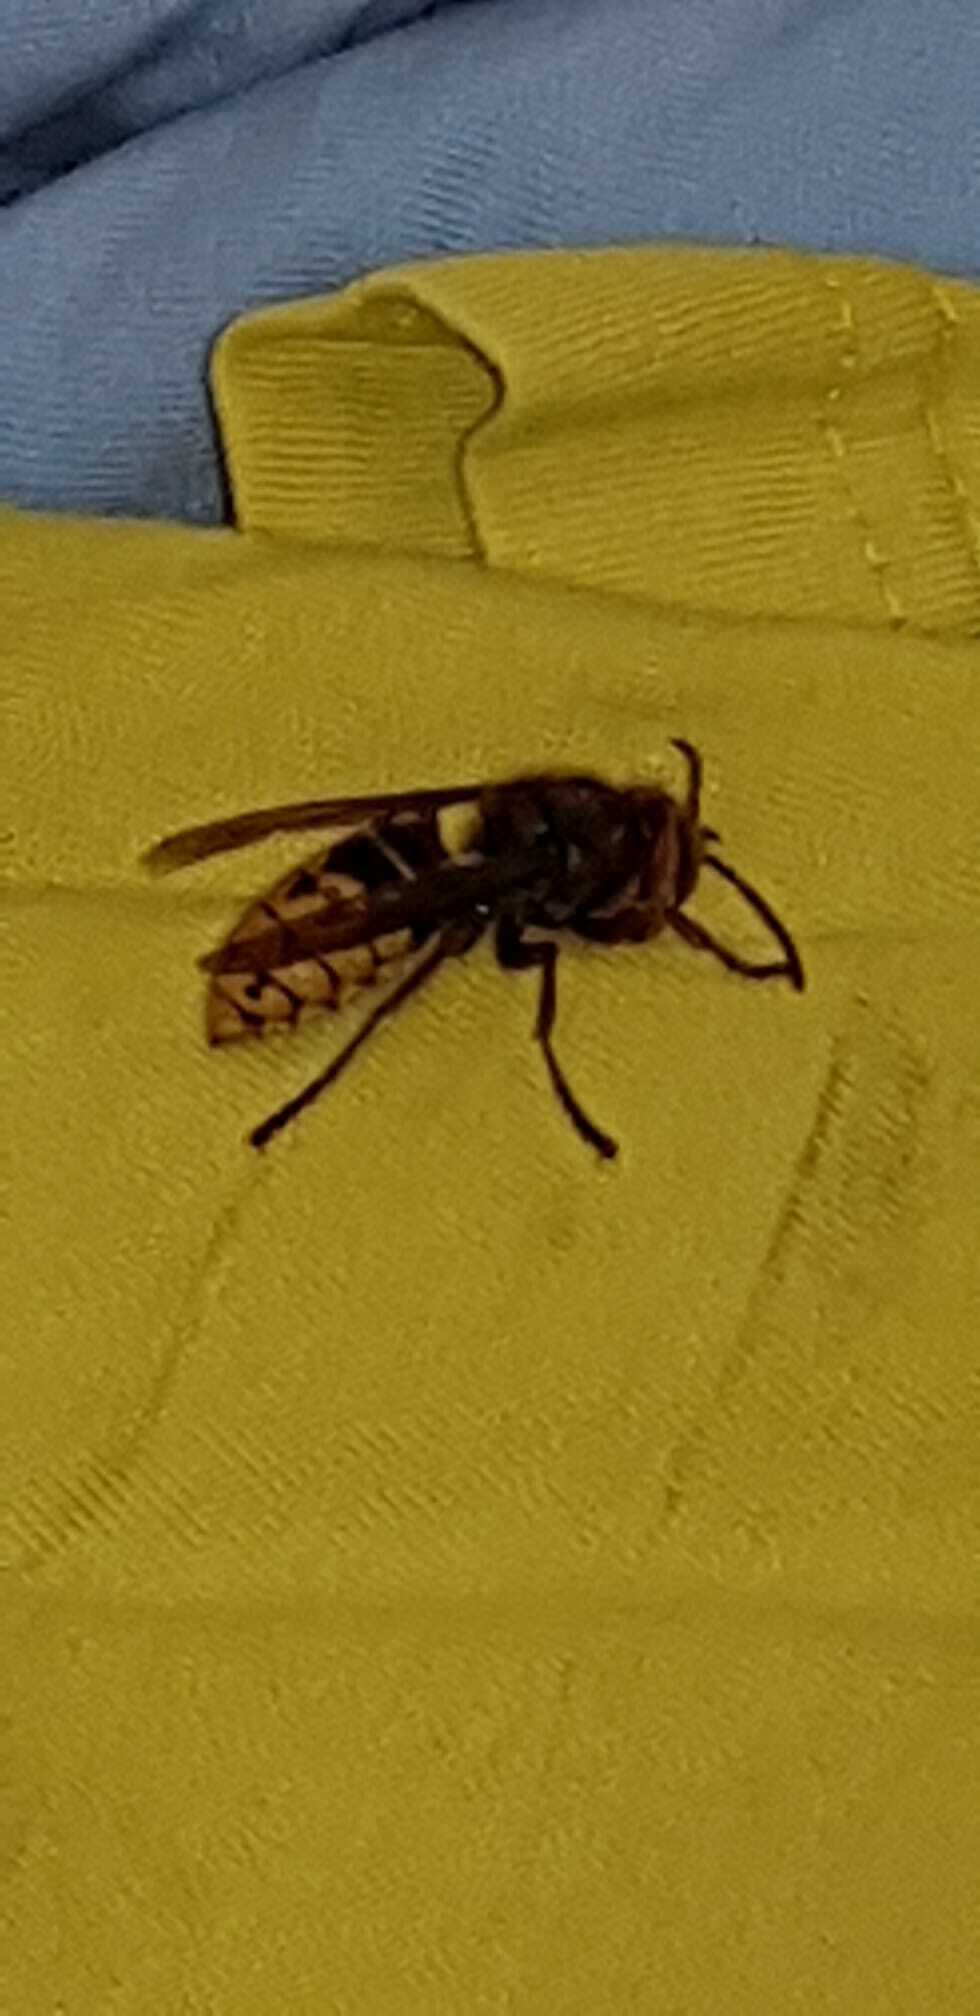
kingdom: Animalia
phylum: Arthropoda
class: Insecta
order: Hymenoptera
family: Vespidae
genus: Vespa
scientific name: Vespa crabro
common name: Hornet
